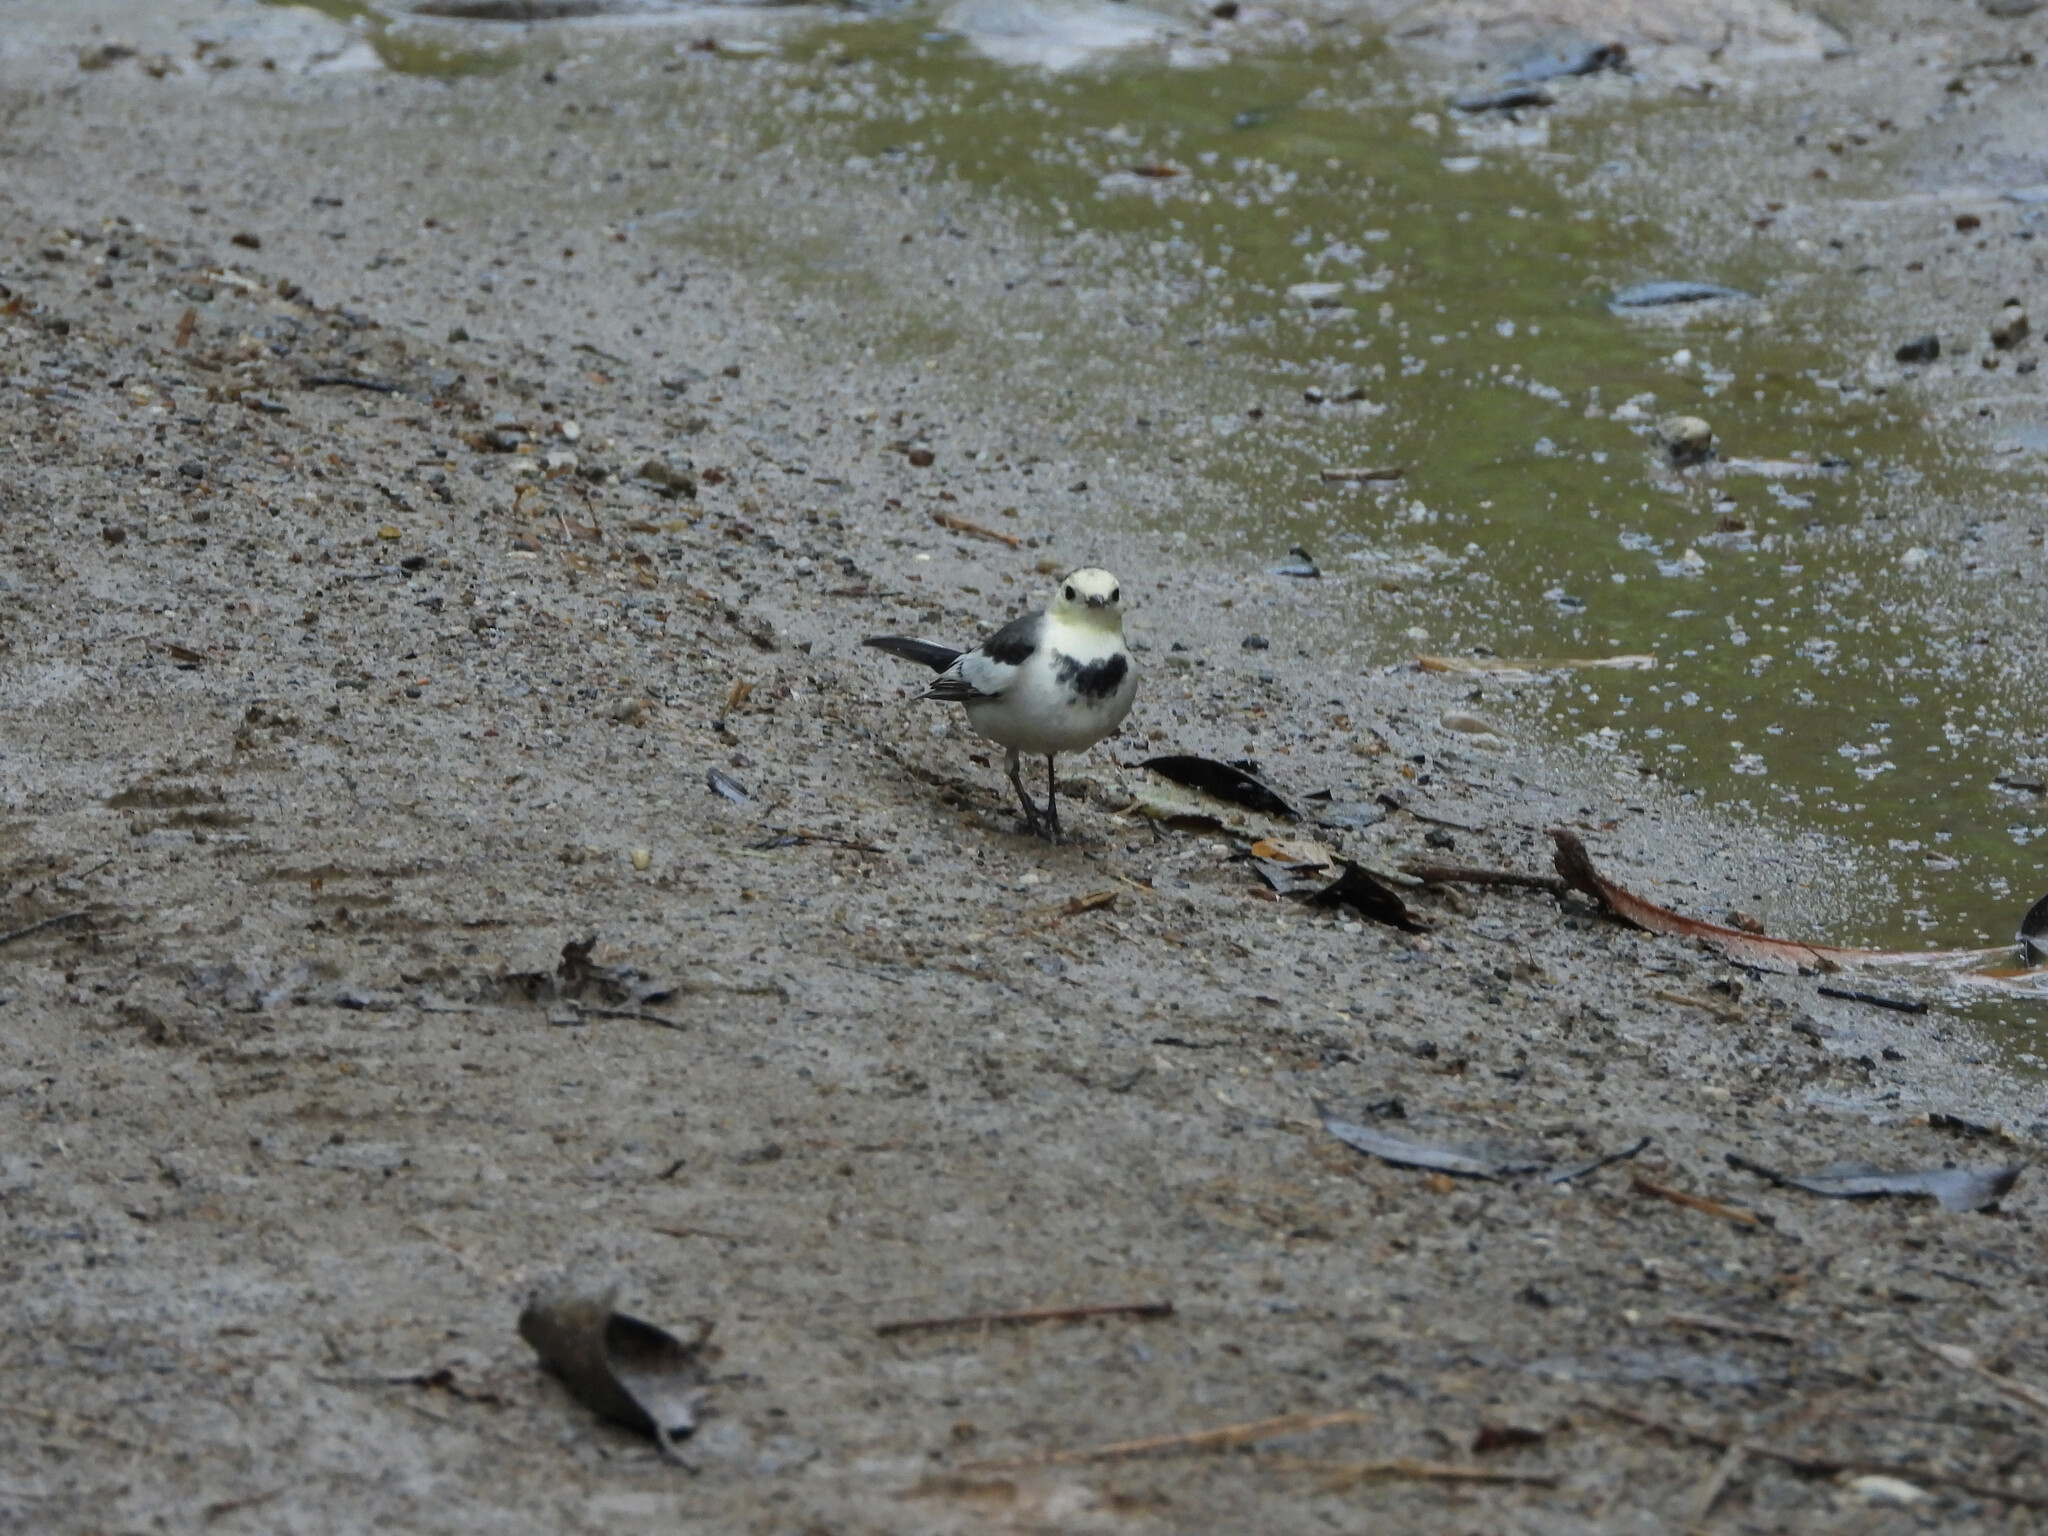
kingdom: Animalia
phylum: Chordata
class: Aves
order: Passeriformes
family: Motacillidae
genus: Motacilla
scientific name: Motacilla alba
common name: White wagtail
